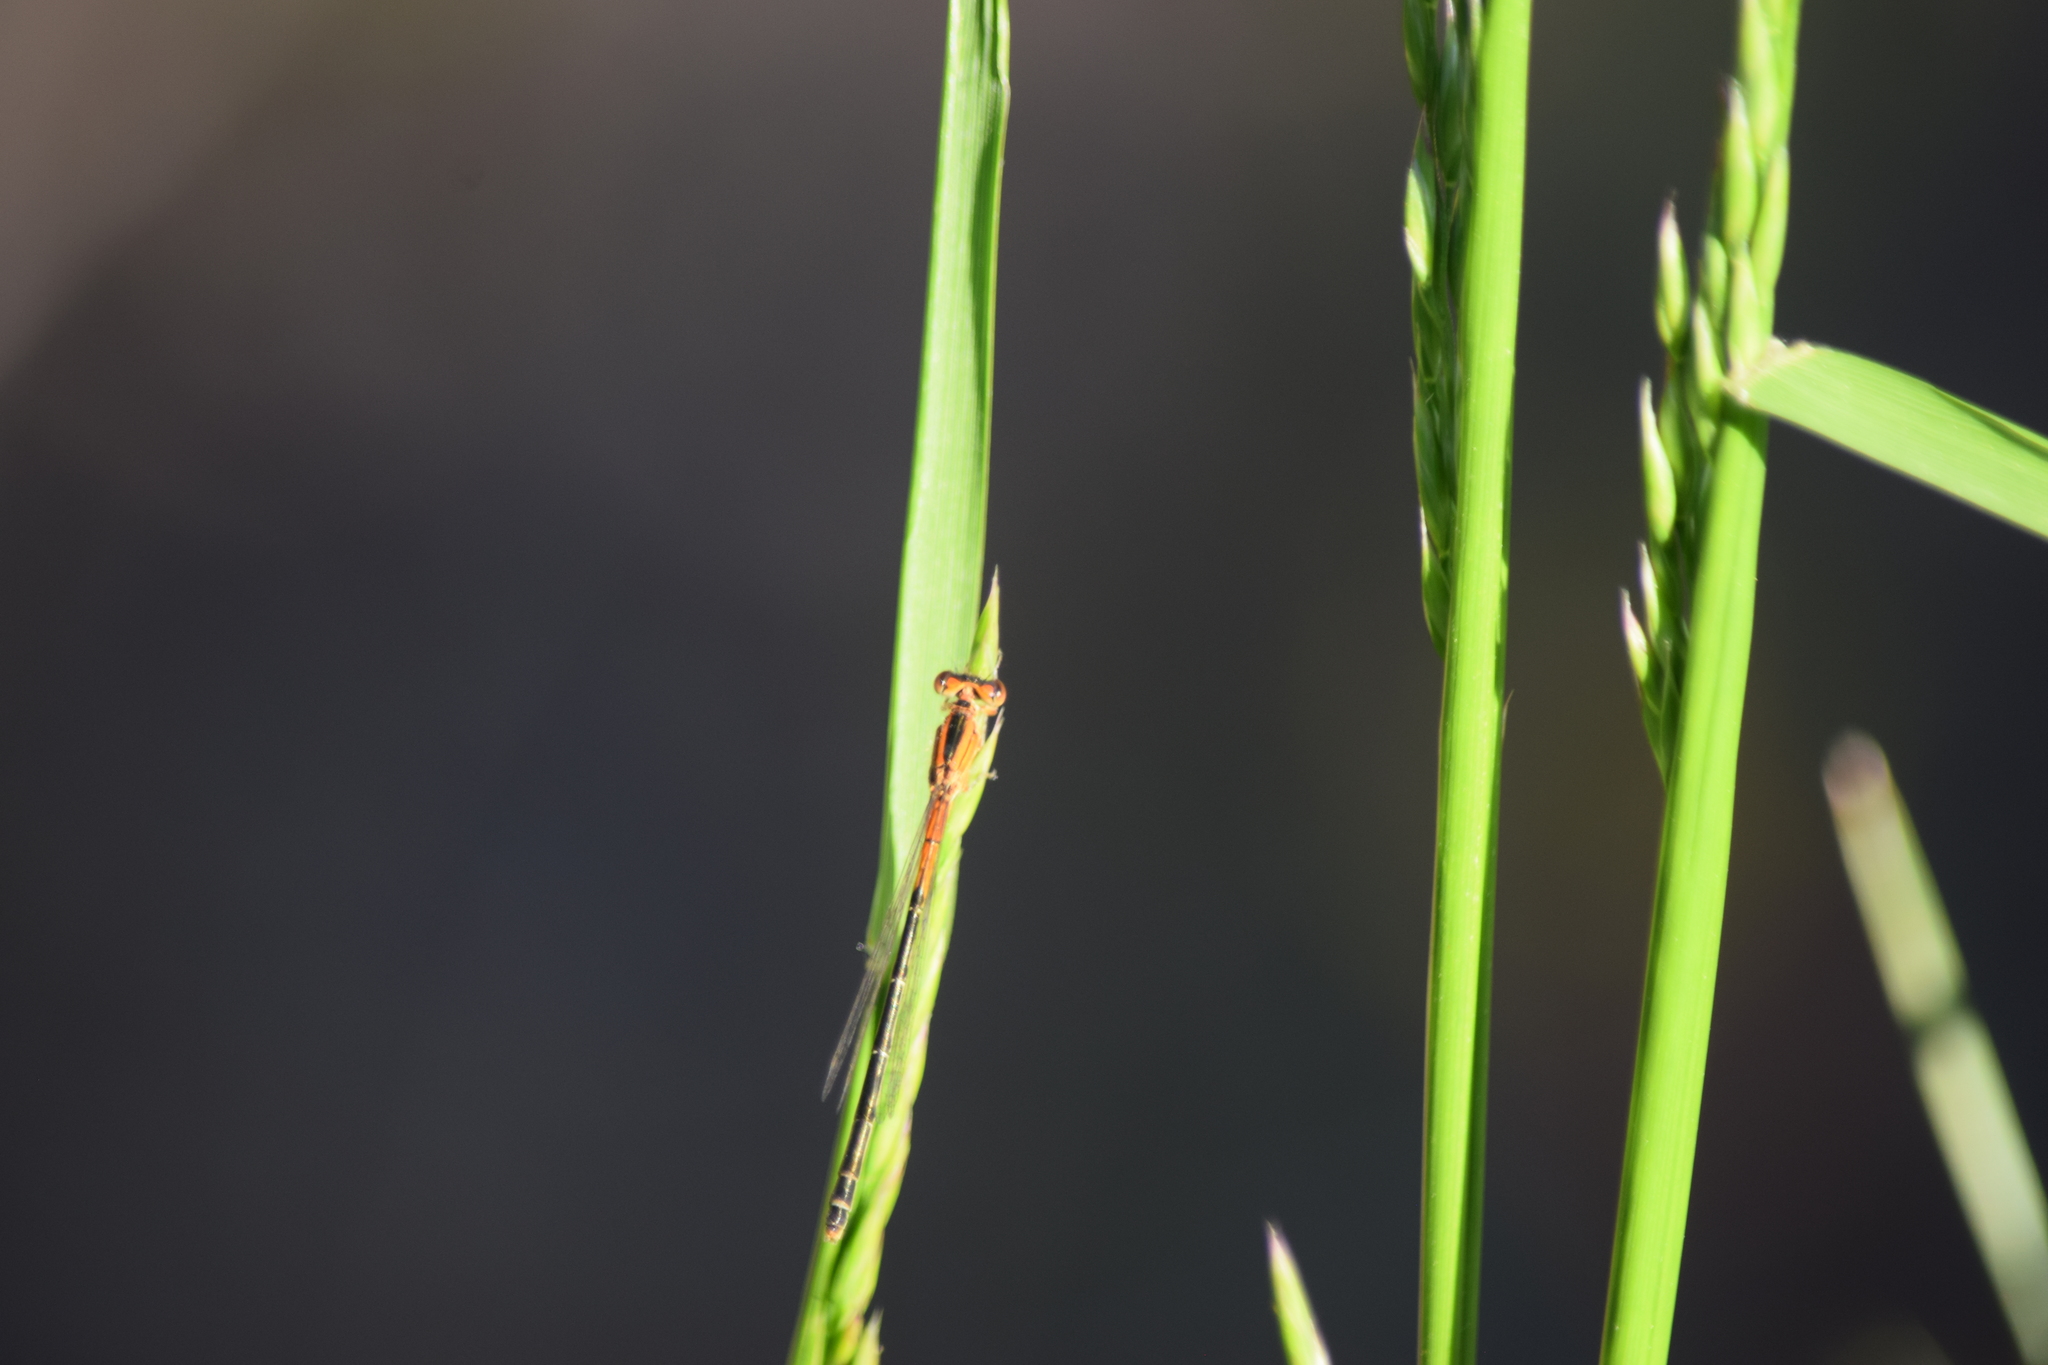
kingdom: Animalia
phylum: Arthropoda
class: Insecta
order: Odonata
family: Coenagrionidae
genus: Ischnura
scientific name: Ischnura verticalis
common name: Eastern forktail
